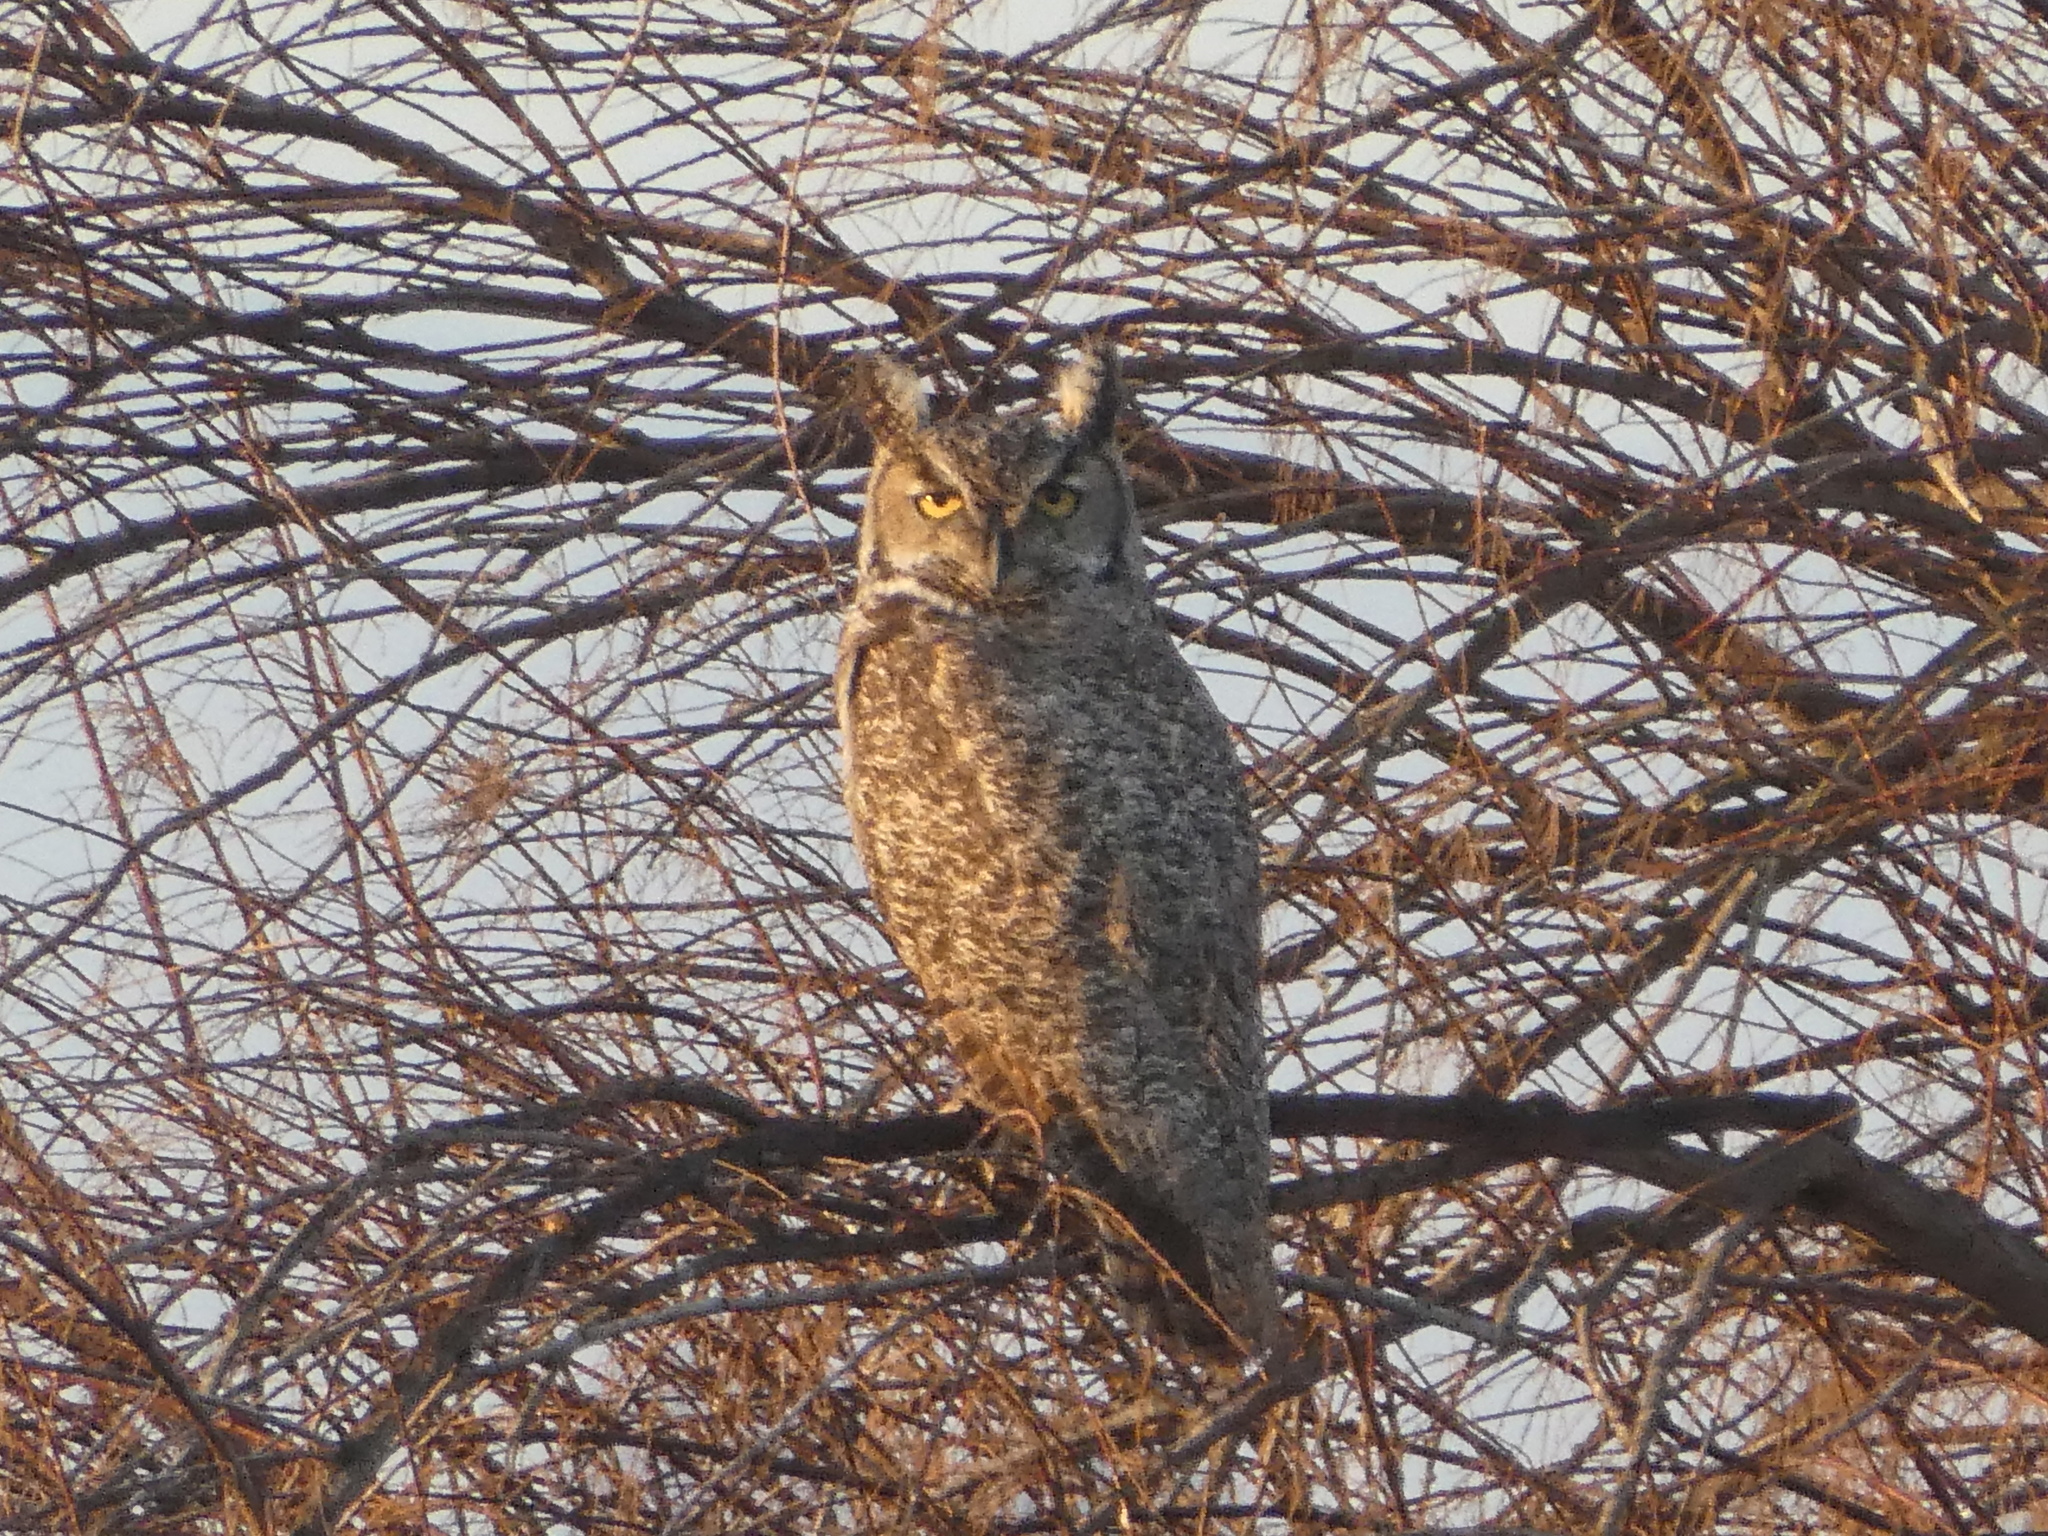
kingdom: Animalia
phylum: Chordata
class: Aves
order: Strigiformes
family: Strigidae
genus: Bubo
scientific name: Bubo virginianus
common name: Great horned owl
